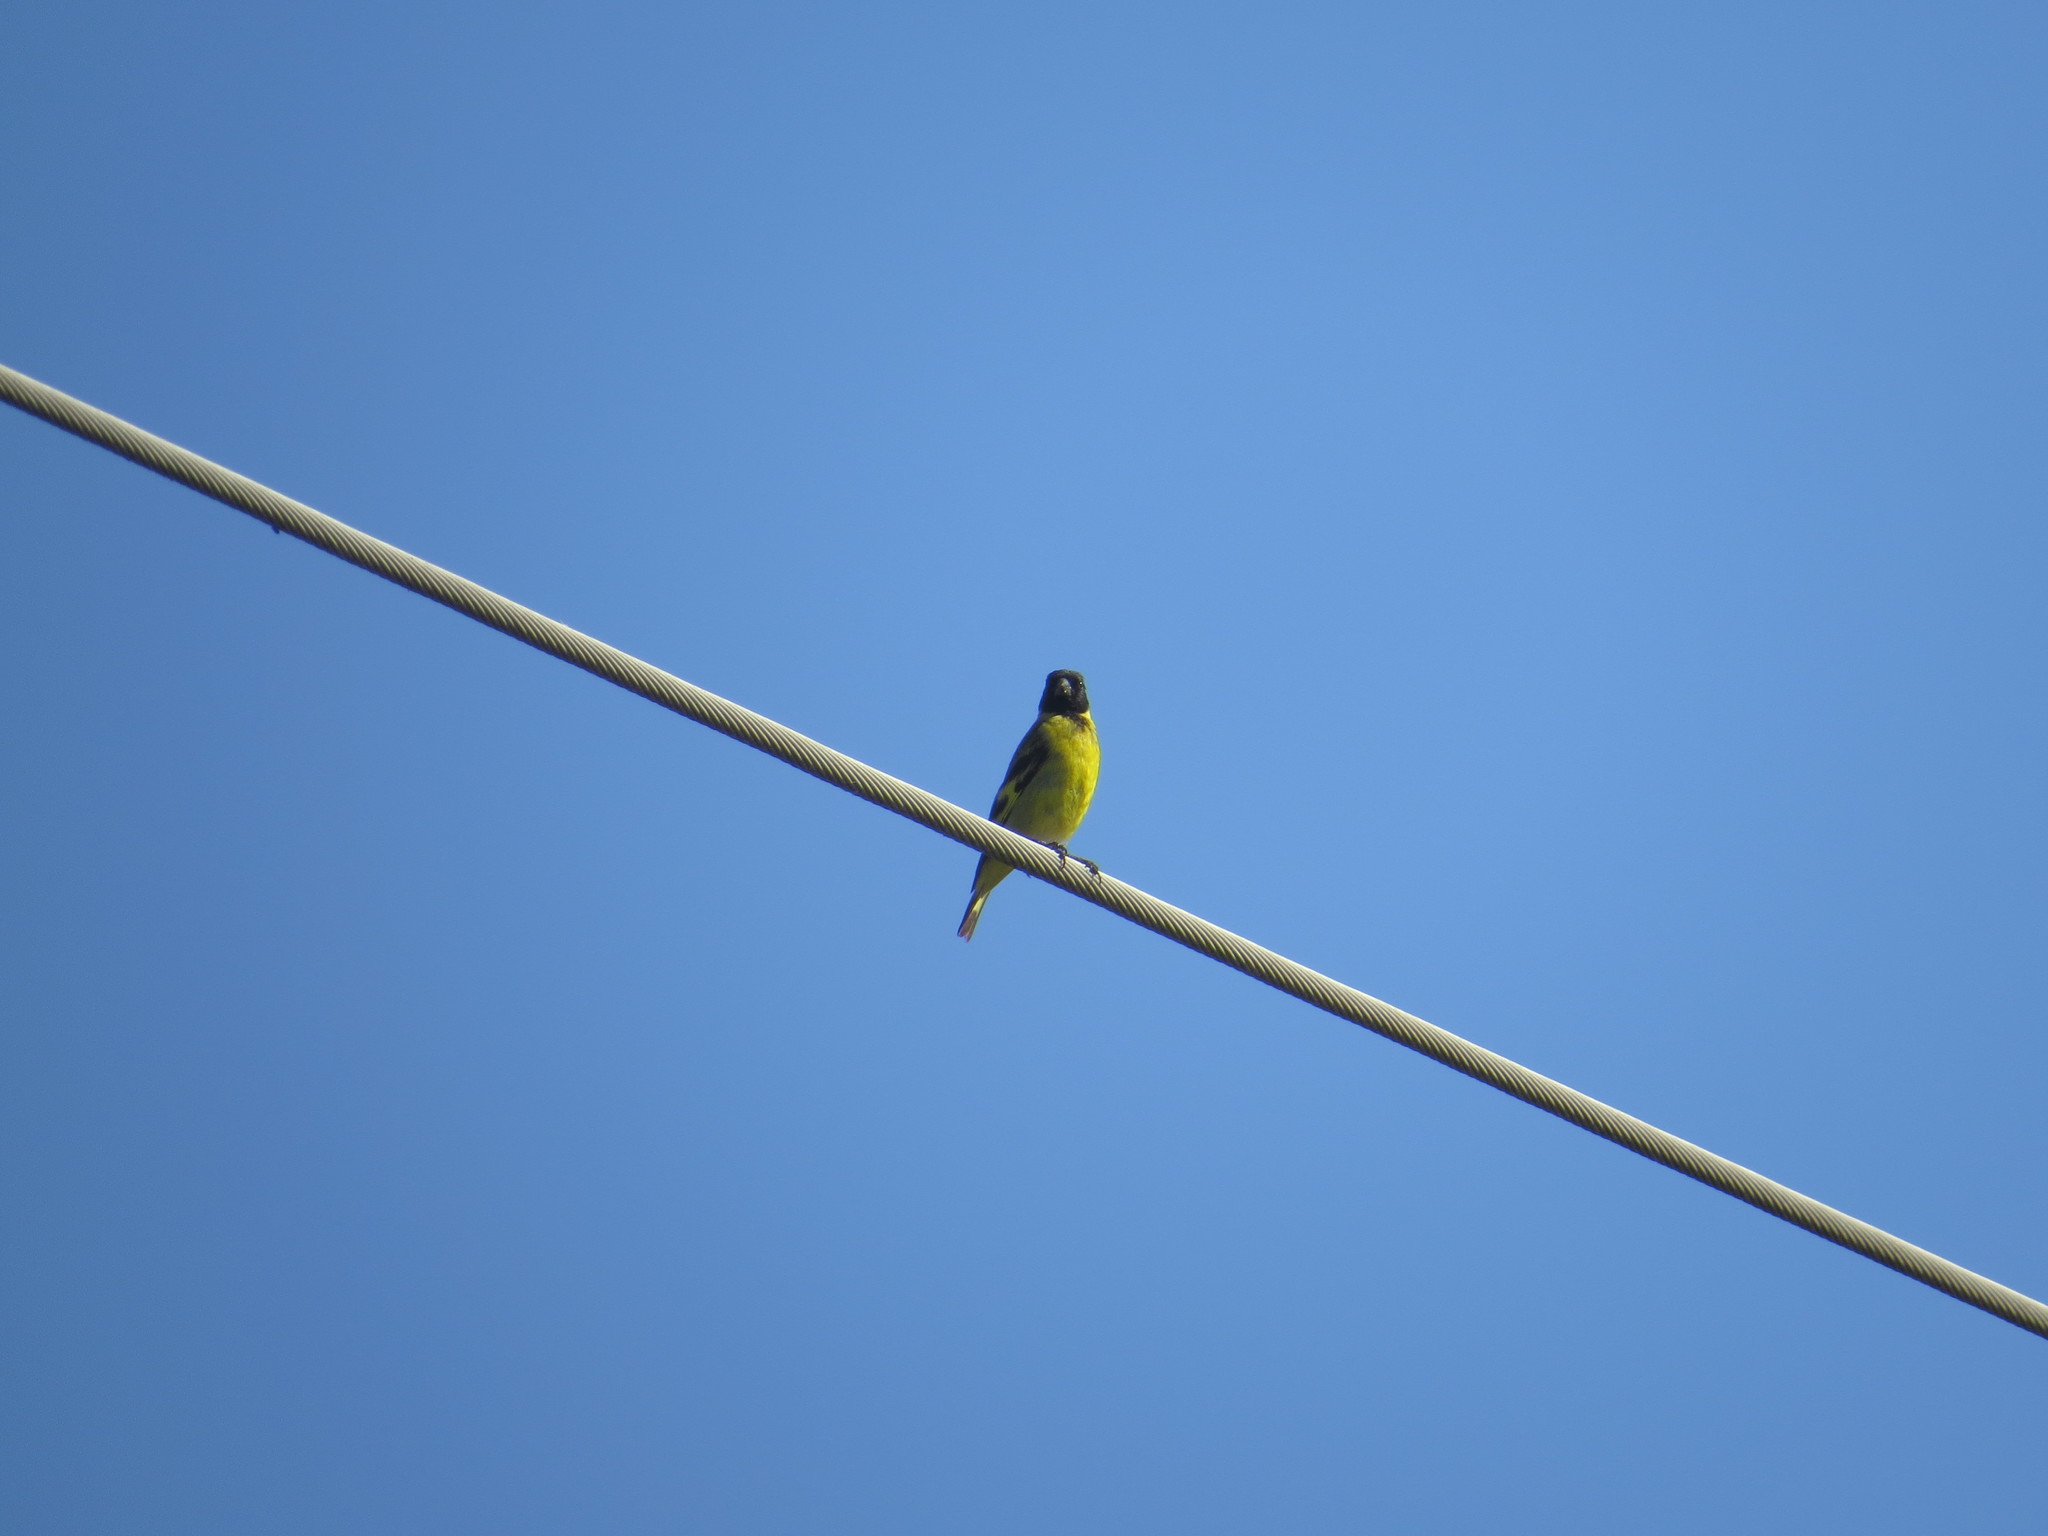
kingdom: Animalia
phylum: Chordata
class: Aves
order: Passeriformes
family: Fringillidae
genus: Spinus
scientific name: Spinus magellanicus
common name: Hooded siskin
